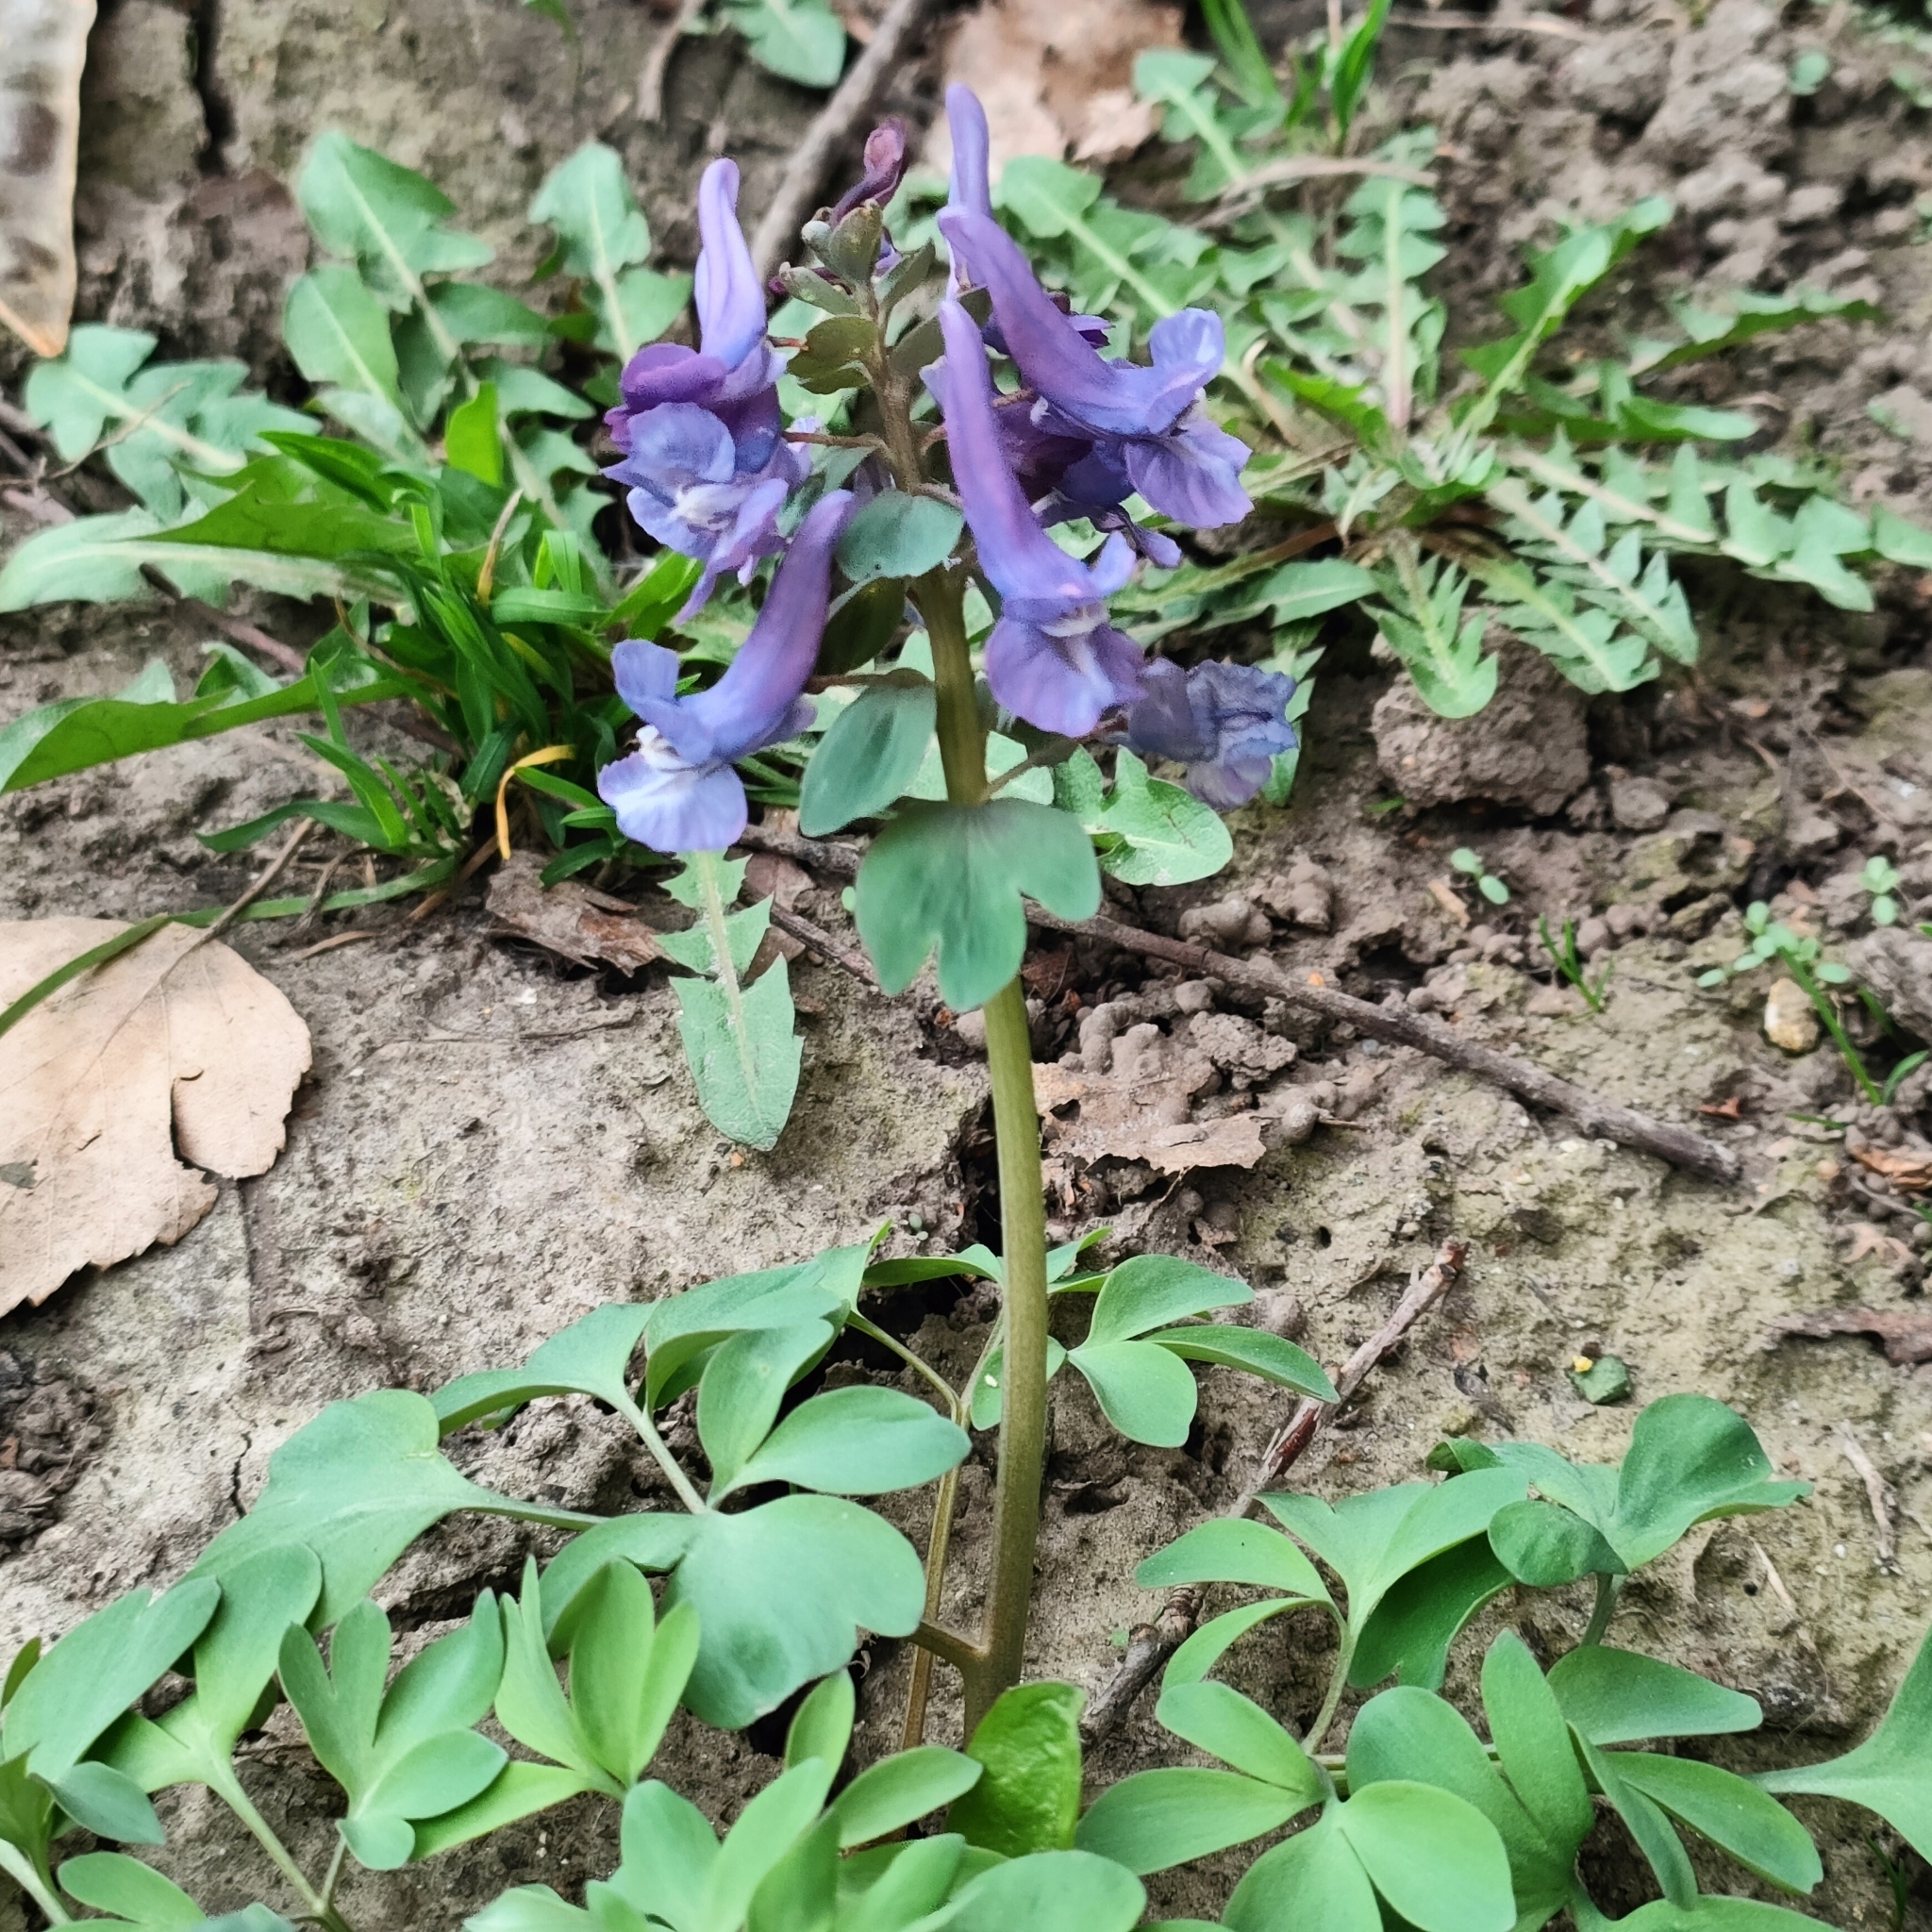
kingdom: Plantae
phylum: Tracheophyta
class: Magnoliopsida
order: Ranunculales
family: Papaveraceae
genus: Corydalis
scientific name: Corydalis solida
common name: Bird-in-a-bush
